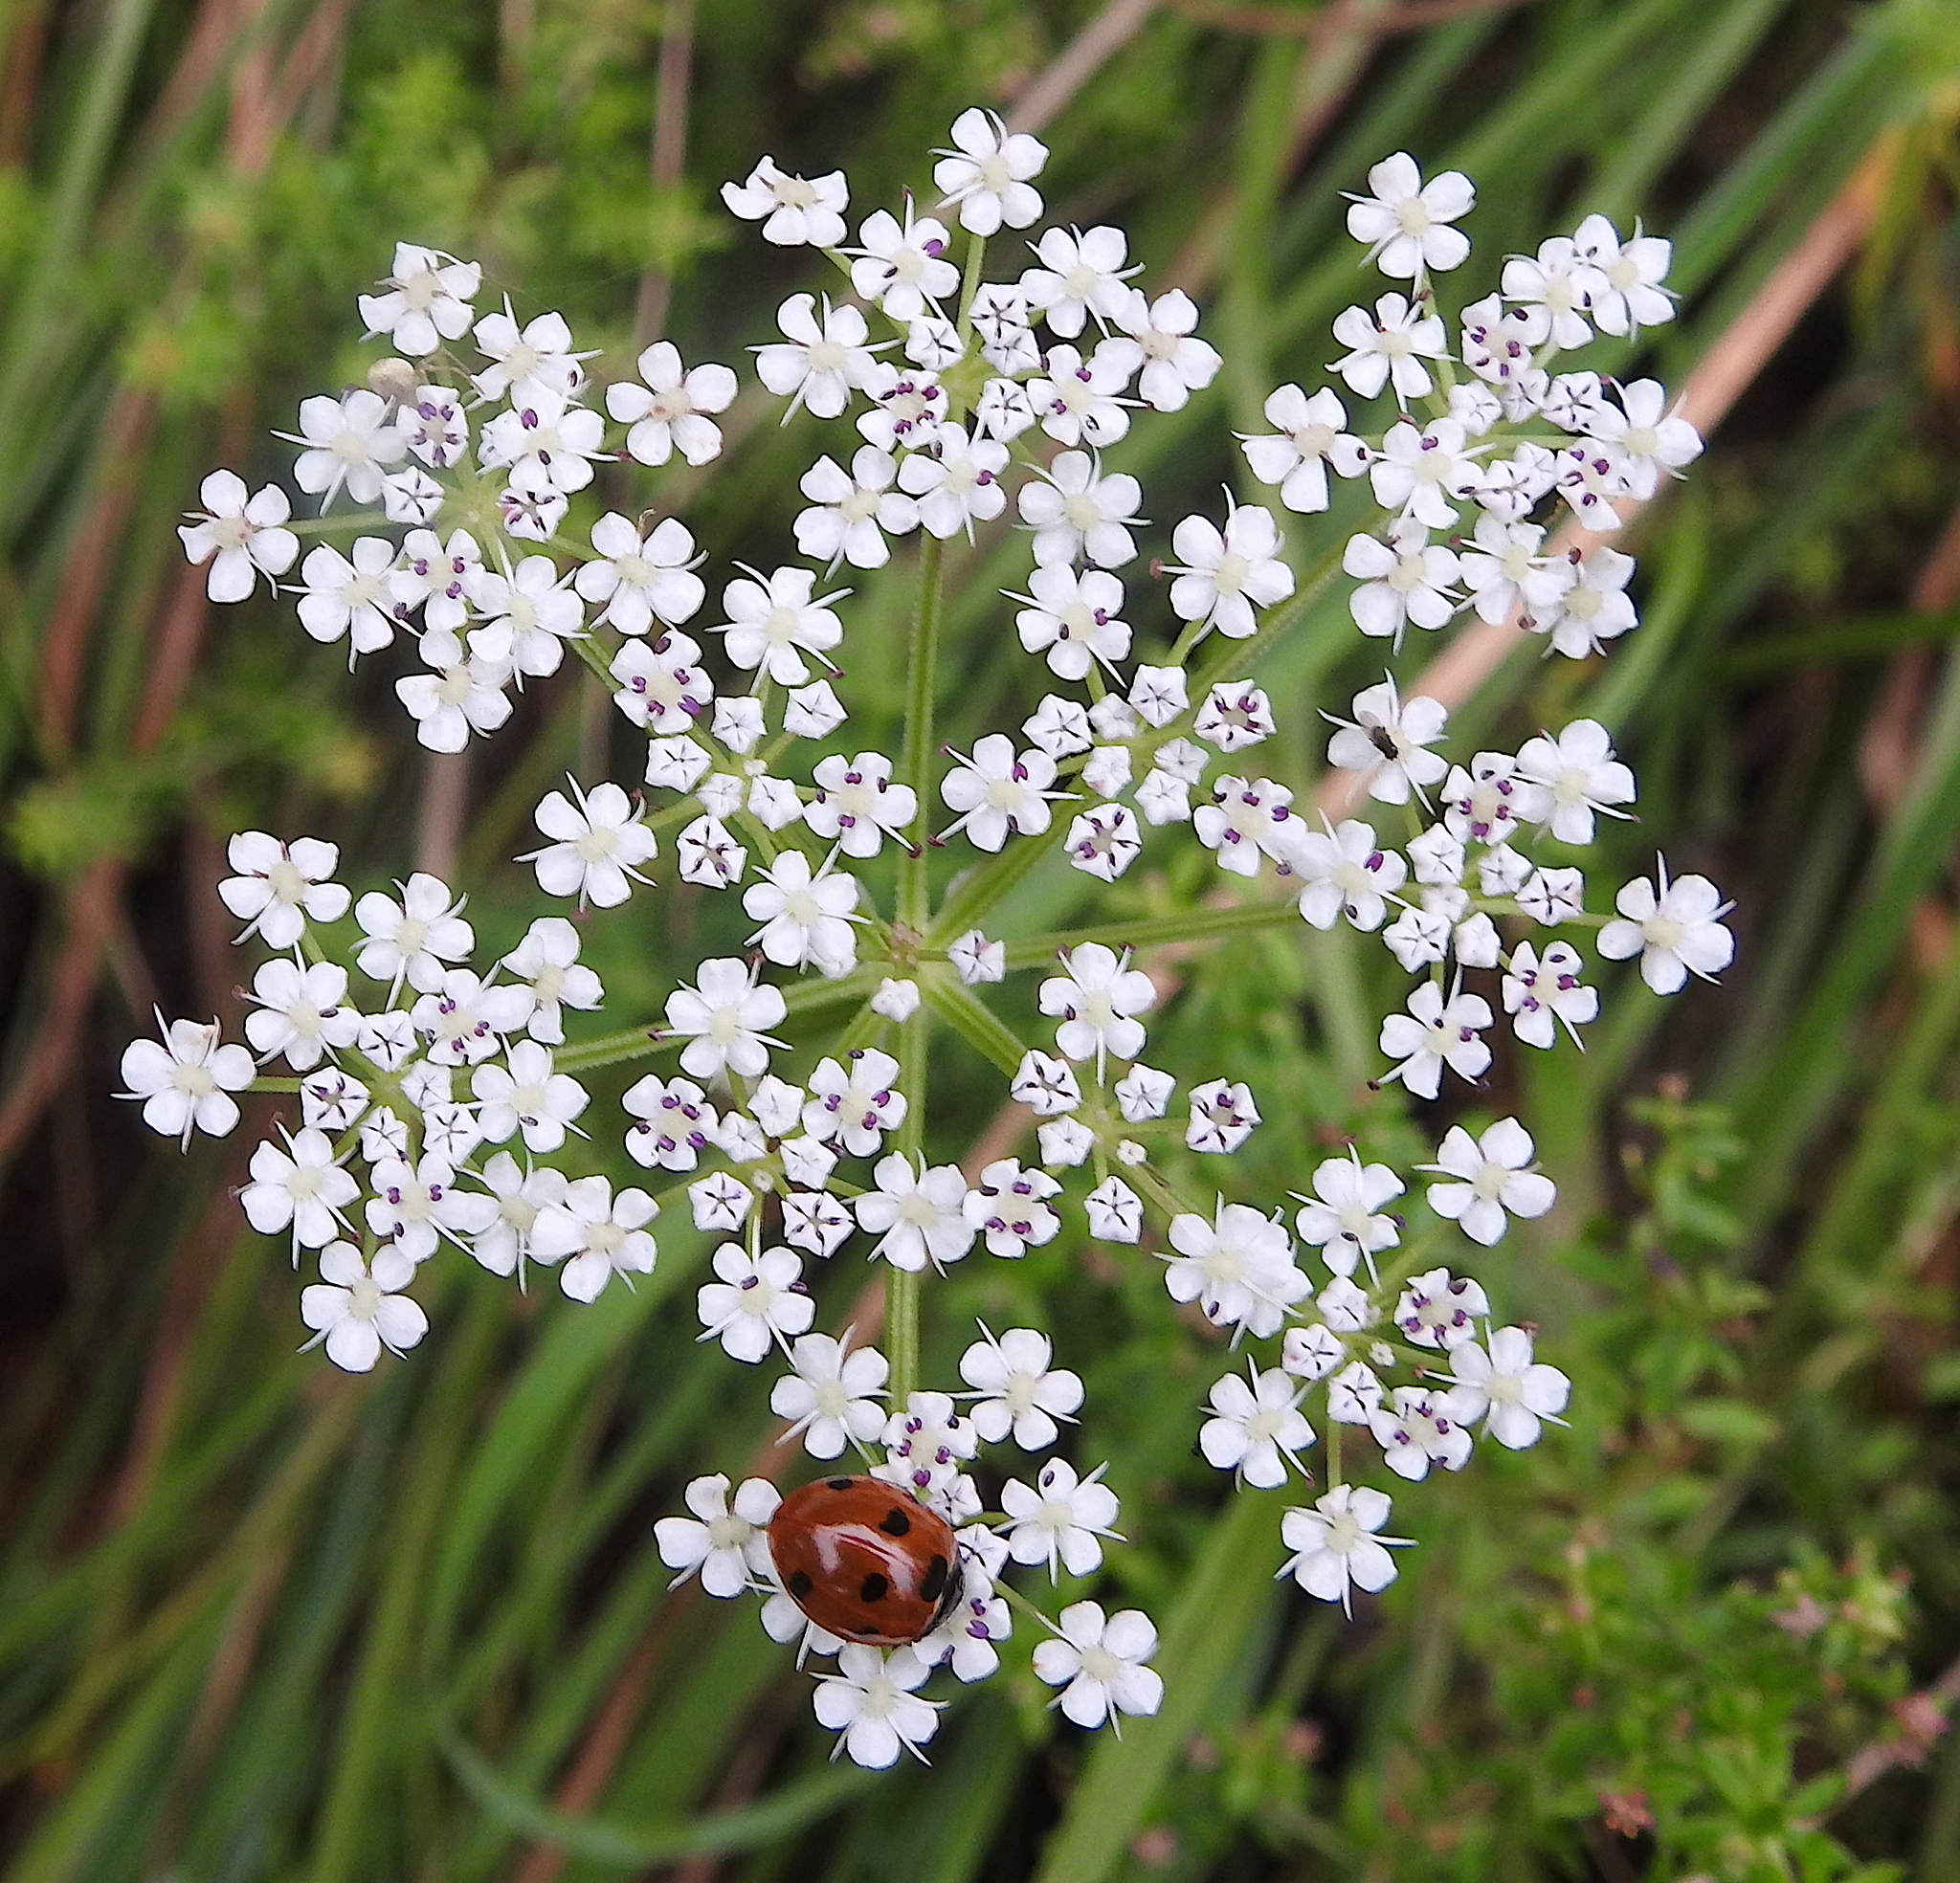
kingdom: Animalia
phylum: Arthropoda
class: Insecta
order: Coleoptera
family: Coccinellidae
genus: Coccinella
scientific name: Coccinella septempunctata
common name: Sevenspotted lady beetle
